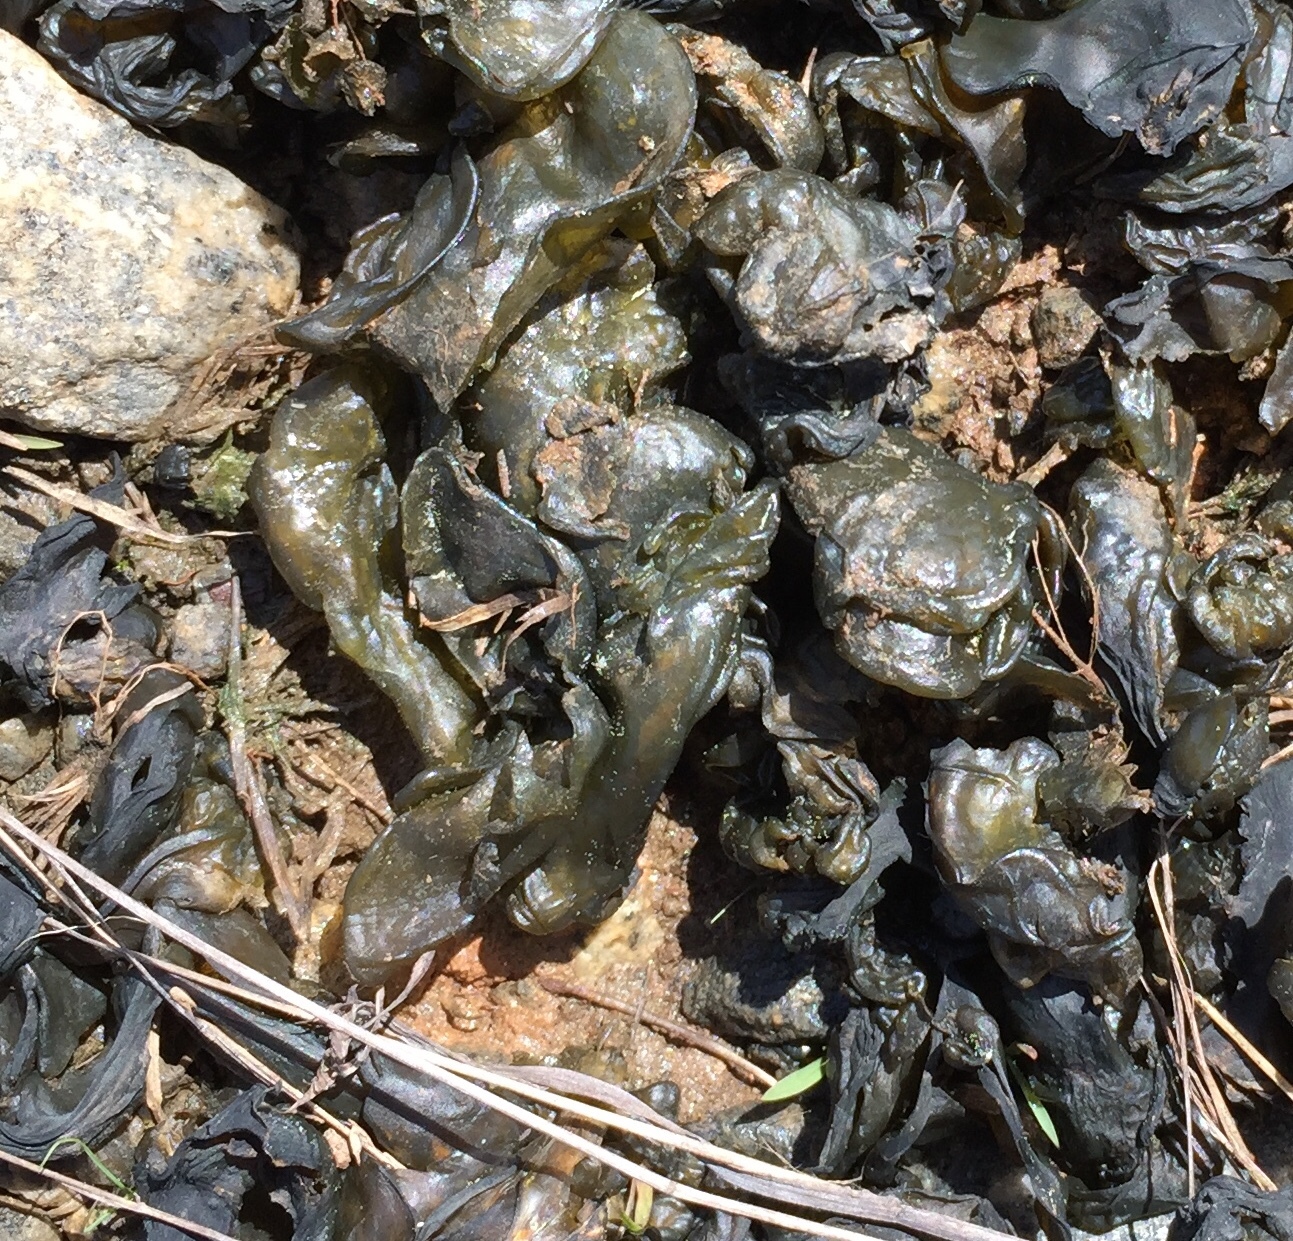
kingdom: Bacteria
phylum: Cyanobacteria
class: Cyanobacteriia
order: Cyanobacteriales
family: Nostocaceae
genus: Nostoc
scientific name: Nostoc commune
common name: Star jelly
